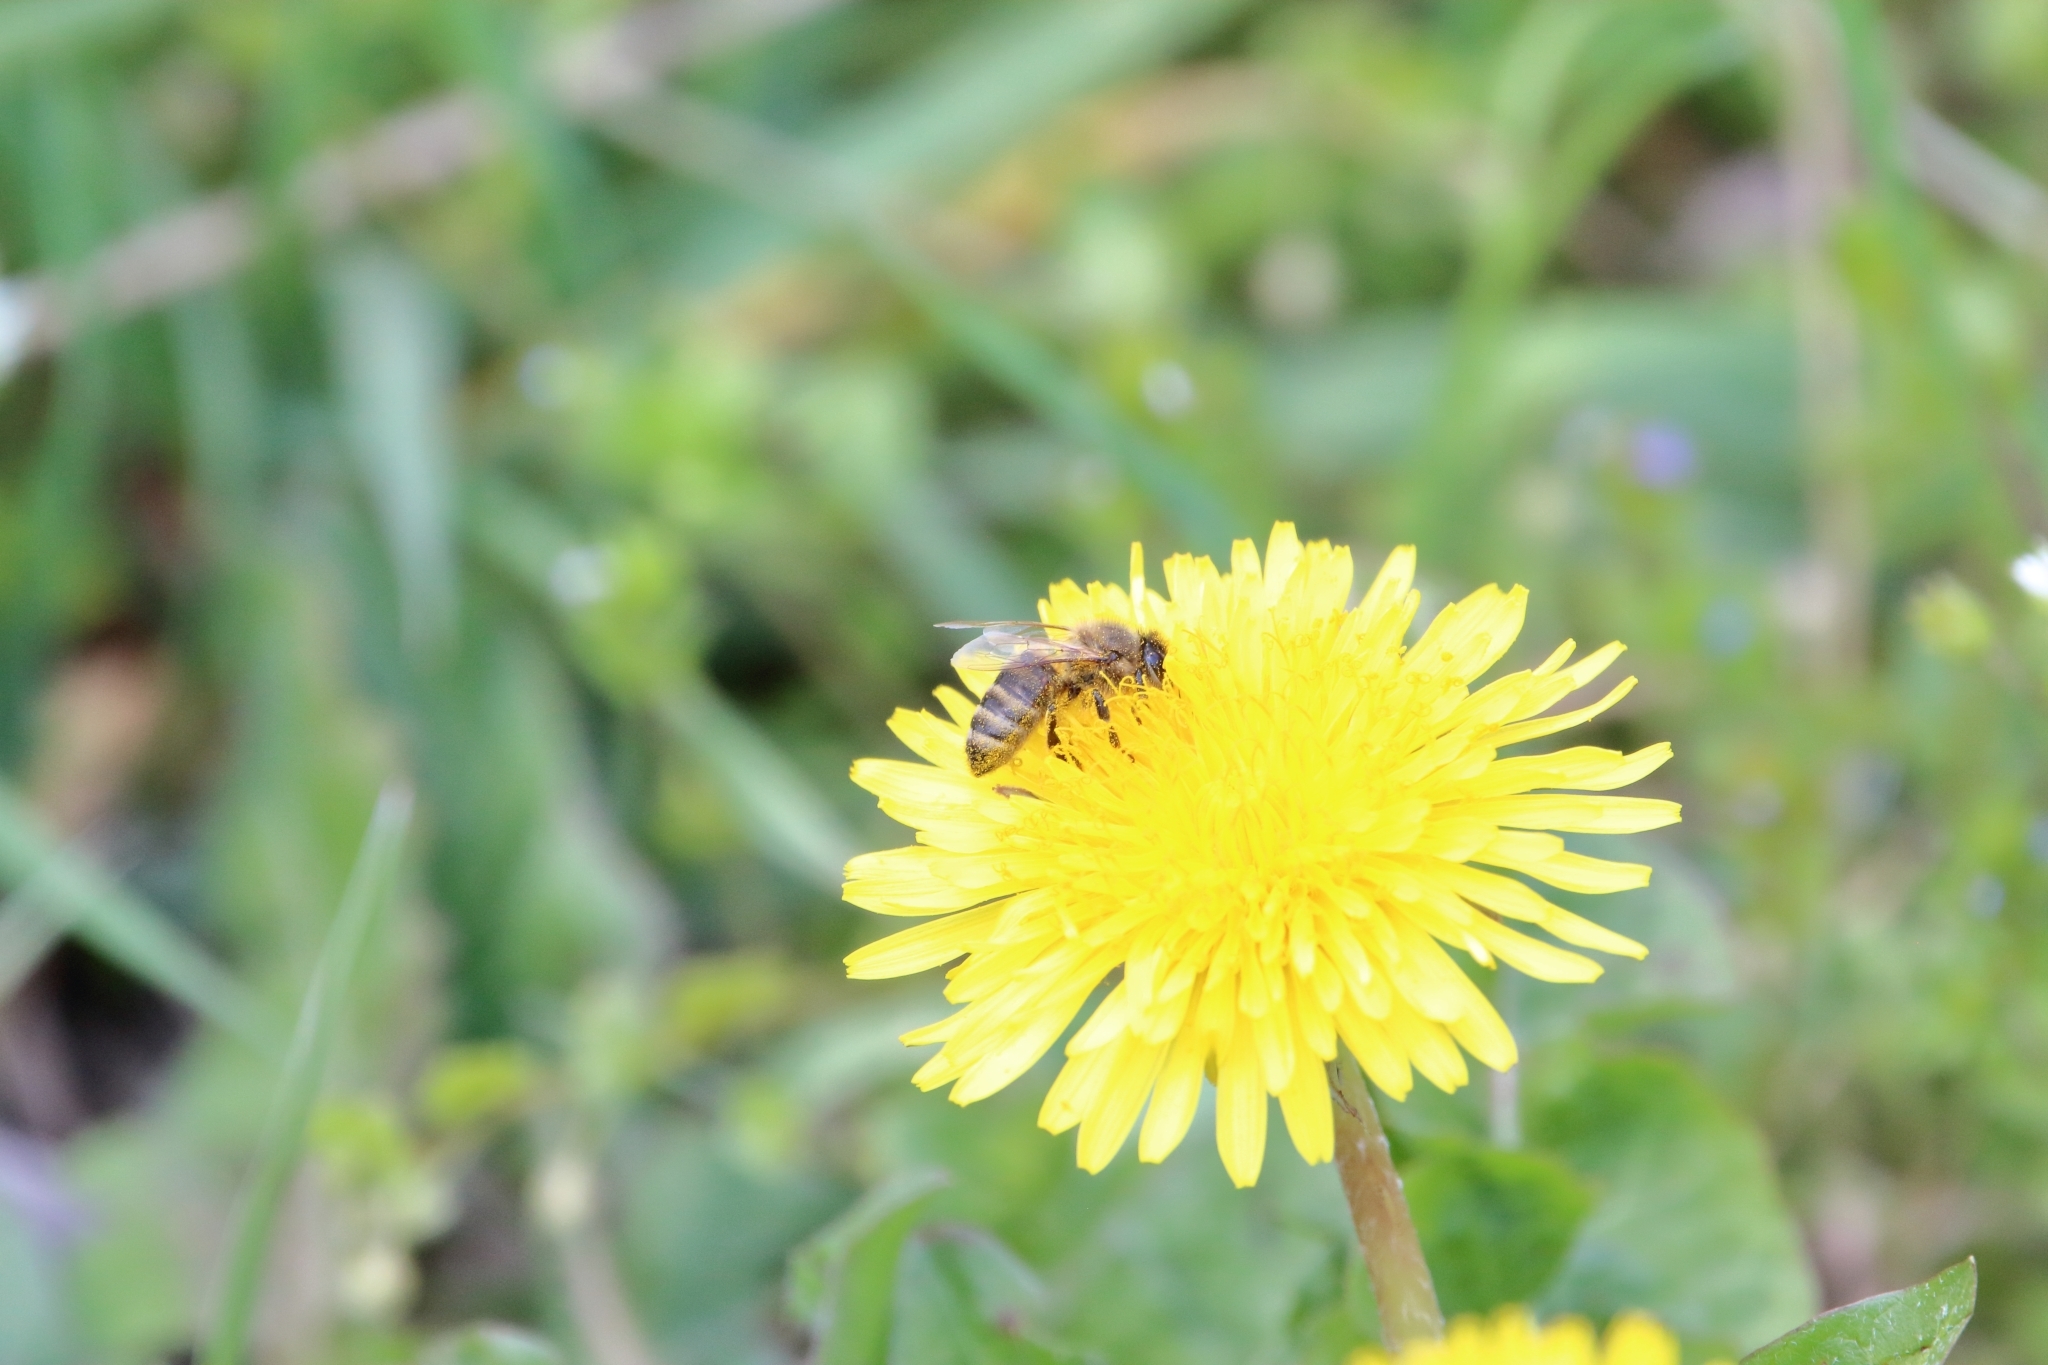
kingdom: Animalia
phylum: Arthropoda
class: Insecta
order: Hymenoptera
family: Apidae
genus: Apis
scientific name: Apis mellifera
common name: Honey bee
